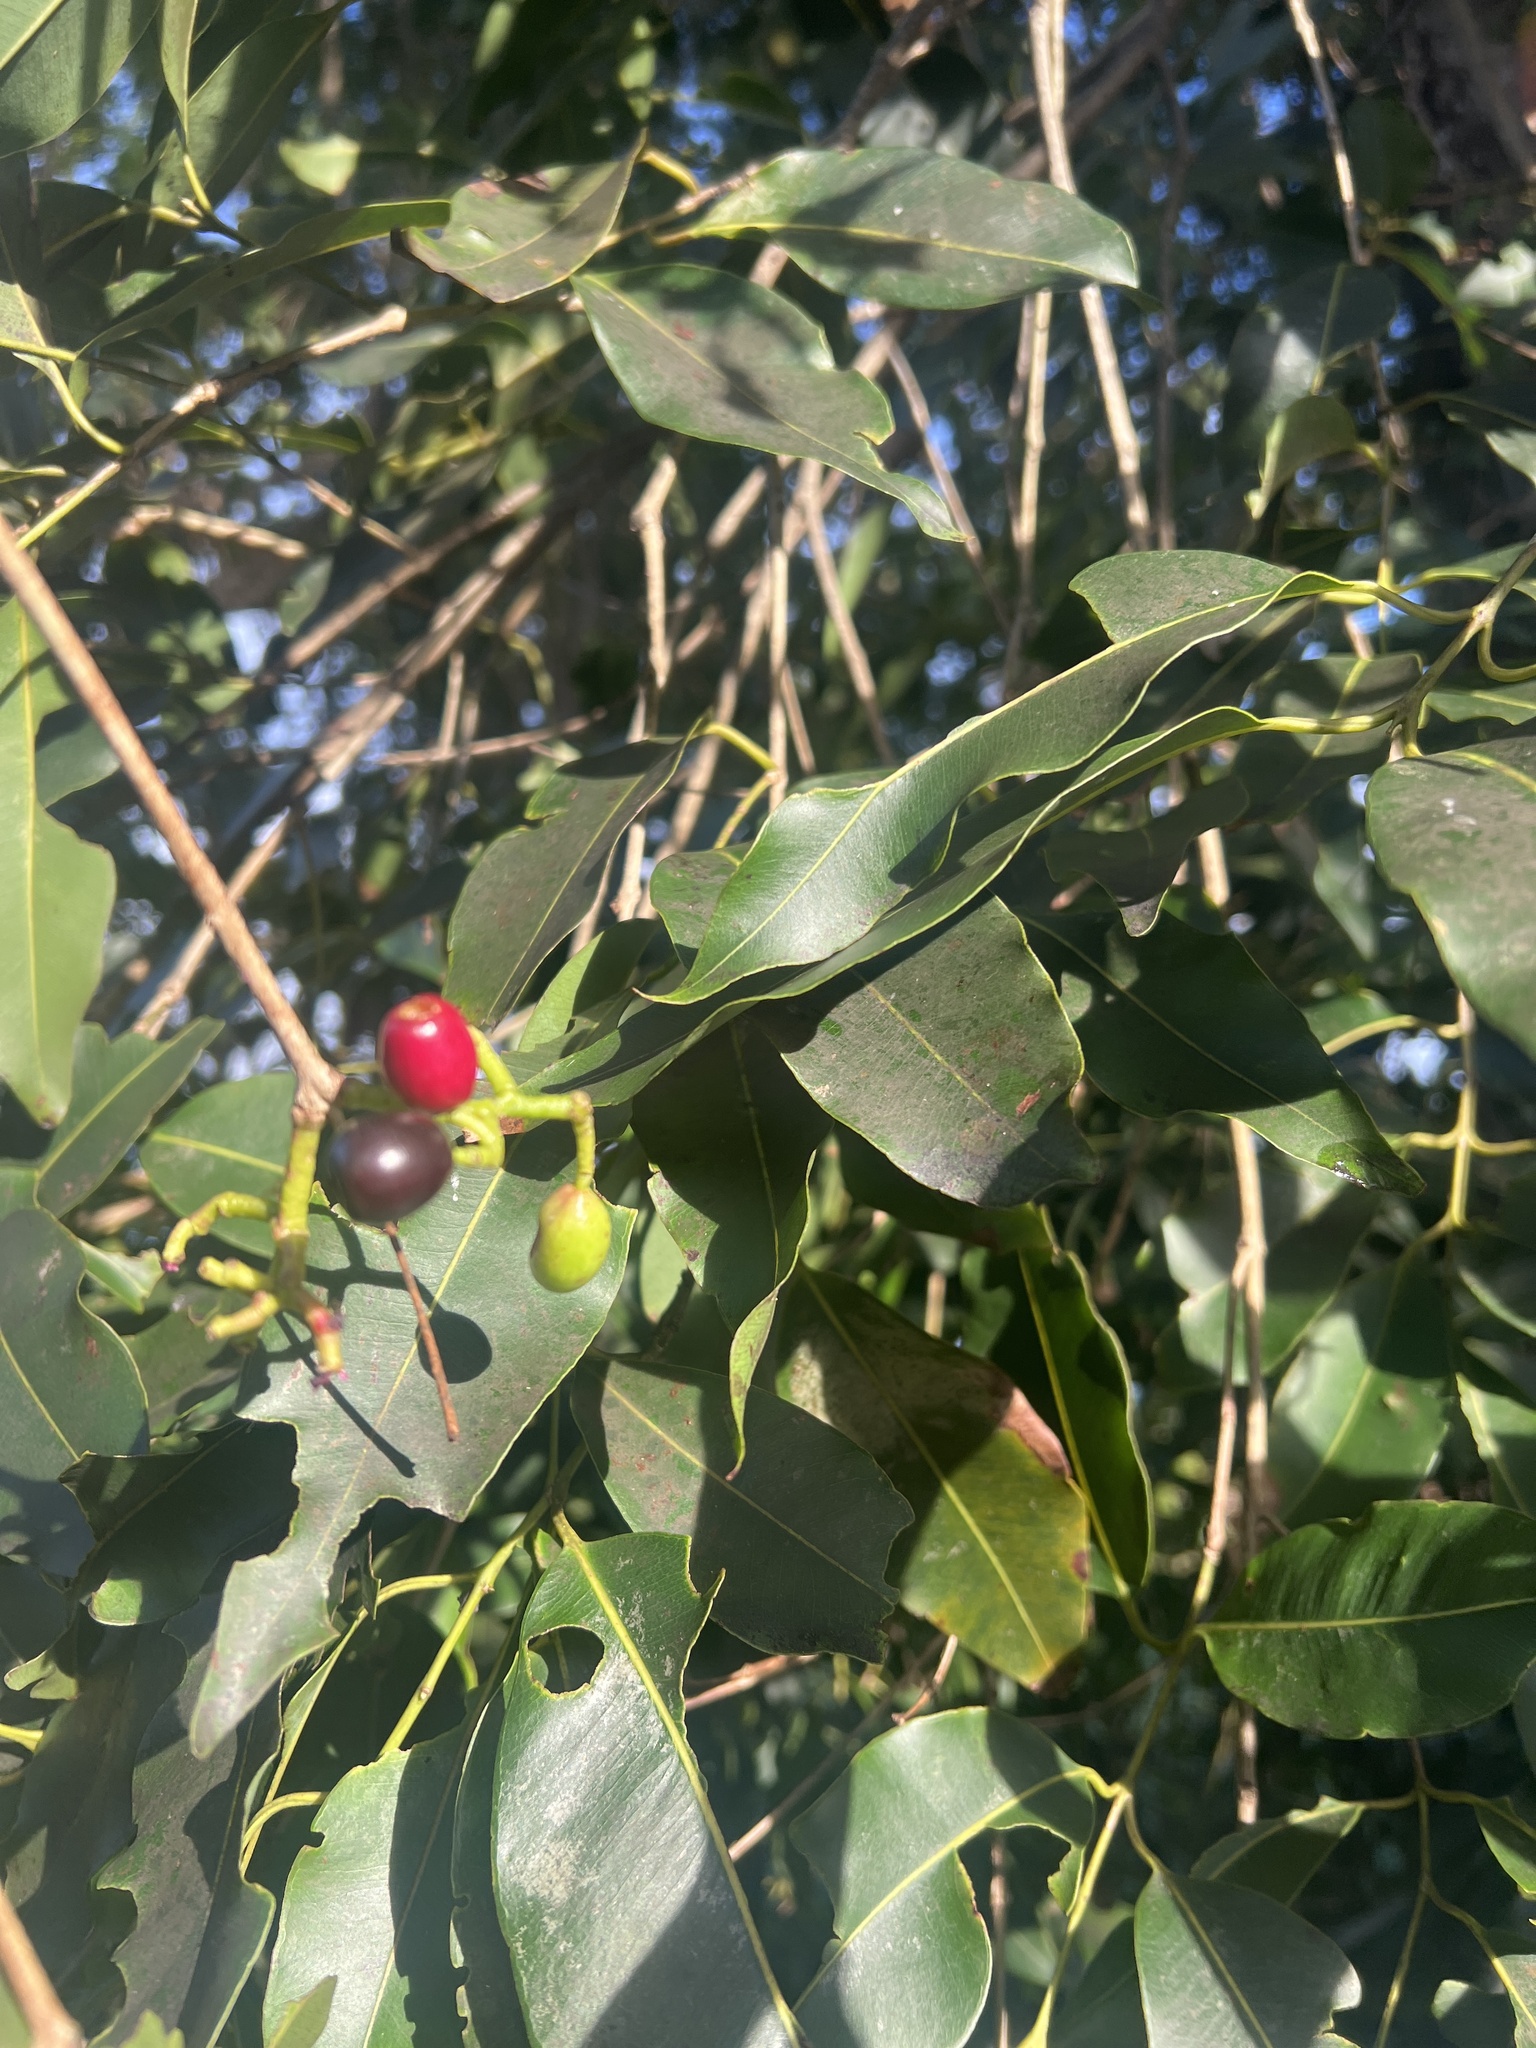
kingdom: Plantae
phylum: Tracheophyta
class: Magnoliopsida
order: Myrtales
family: Myrtaceae
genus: Syzygium
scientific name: Syzygium cumini
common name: Java plum
